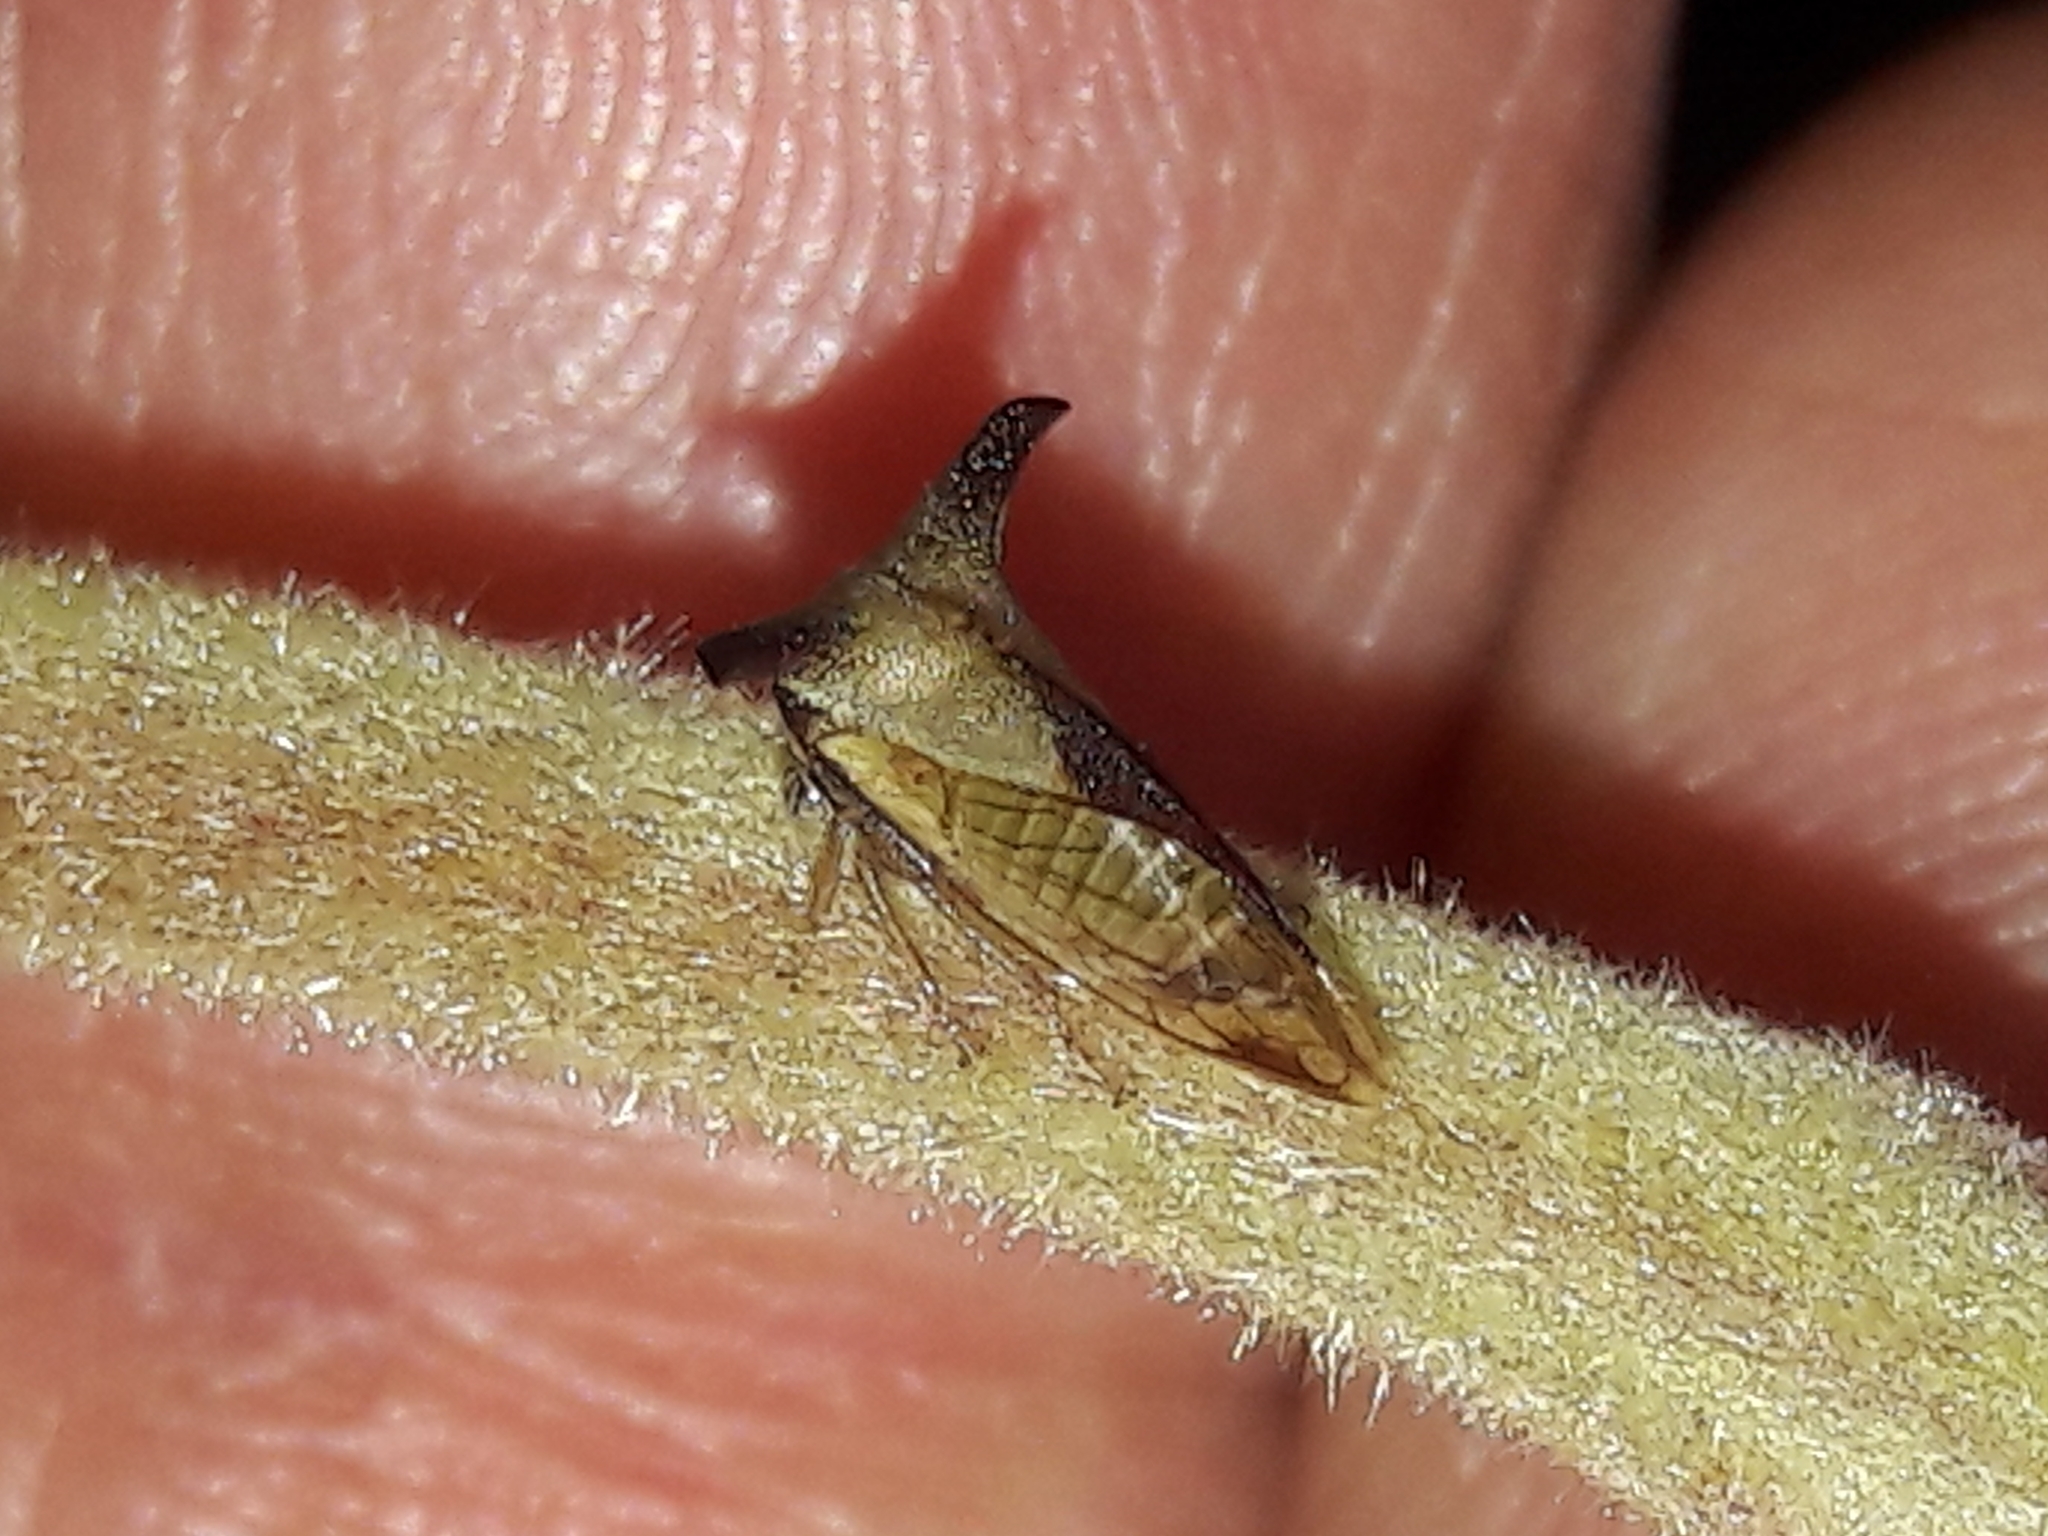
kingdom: Animalia
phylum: Arthropoda
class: Insecta
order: Hemiptera
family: Membracidae
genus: Ceresa
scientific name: Ceresa ustulata
